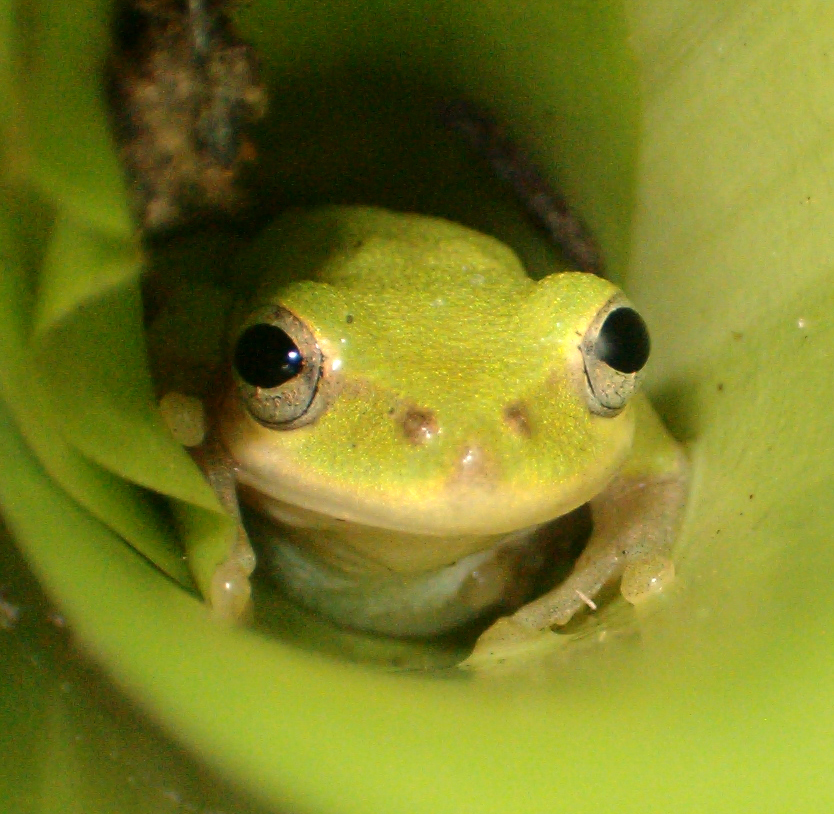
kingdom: Animalia
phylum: Chordata
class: Amphibia
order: Anura
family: Hylidae
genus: Dryophytes
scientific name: Dryophytes squirellus
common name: Squirrel treefrog
